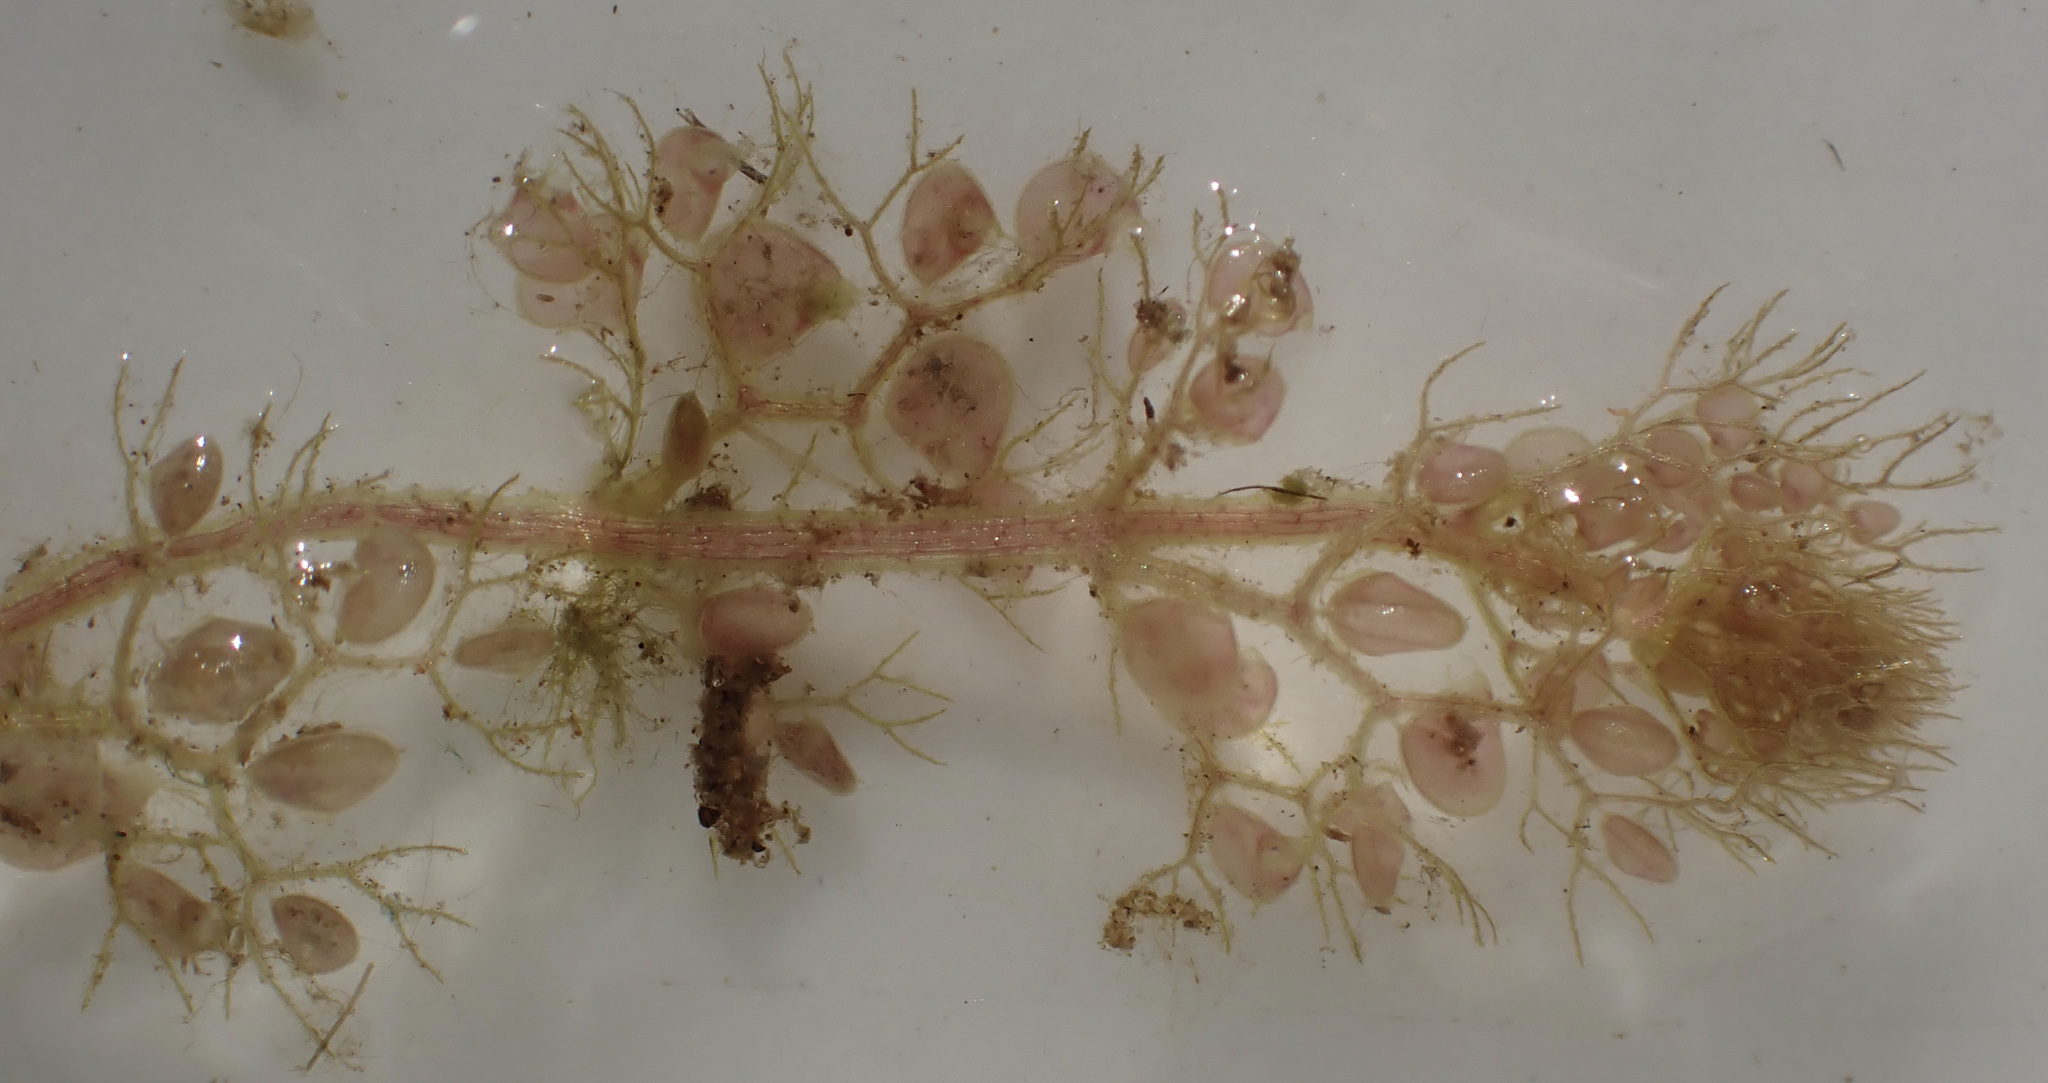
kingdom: Plantae
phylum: Tracheophyta
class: Magnoliopsida
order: Lamiales
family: Lentibulariaceae
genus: Utricularia
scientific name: Utricularia reflexa
